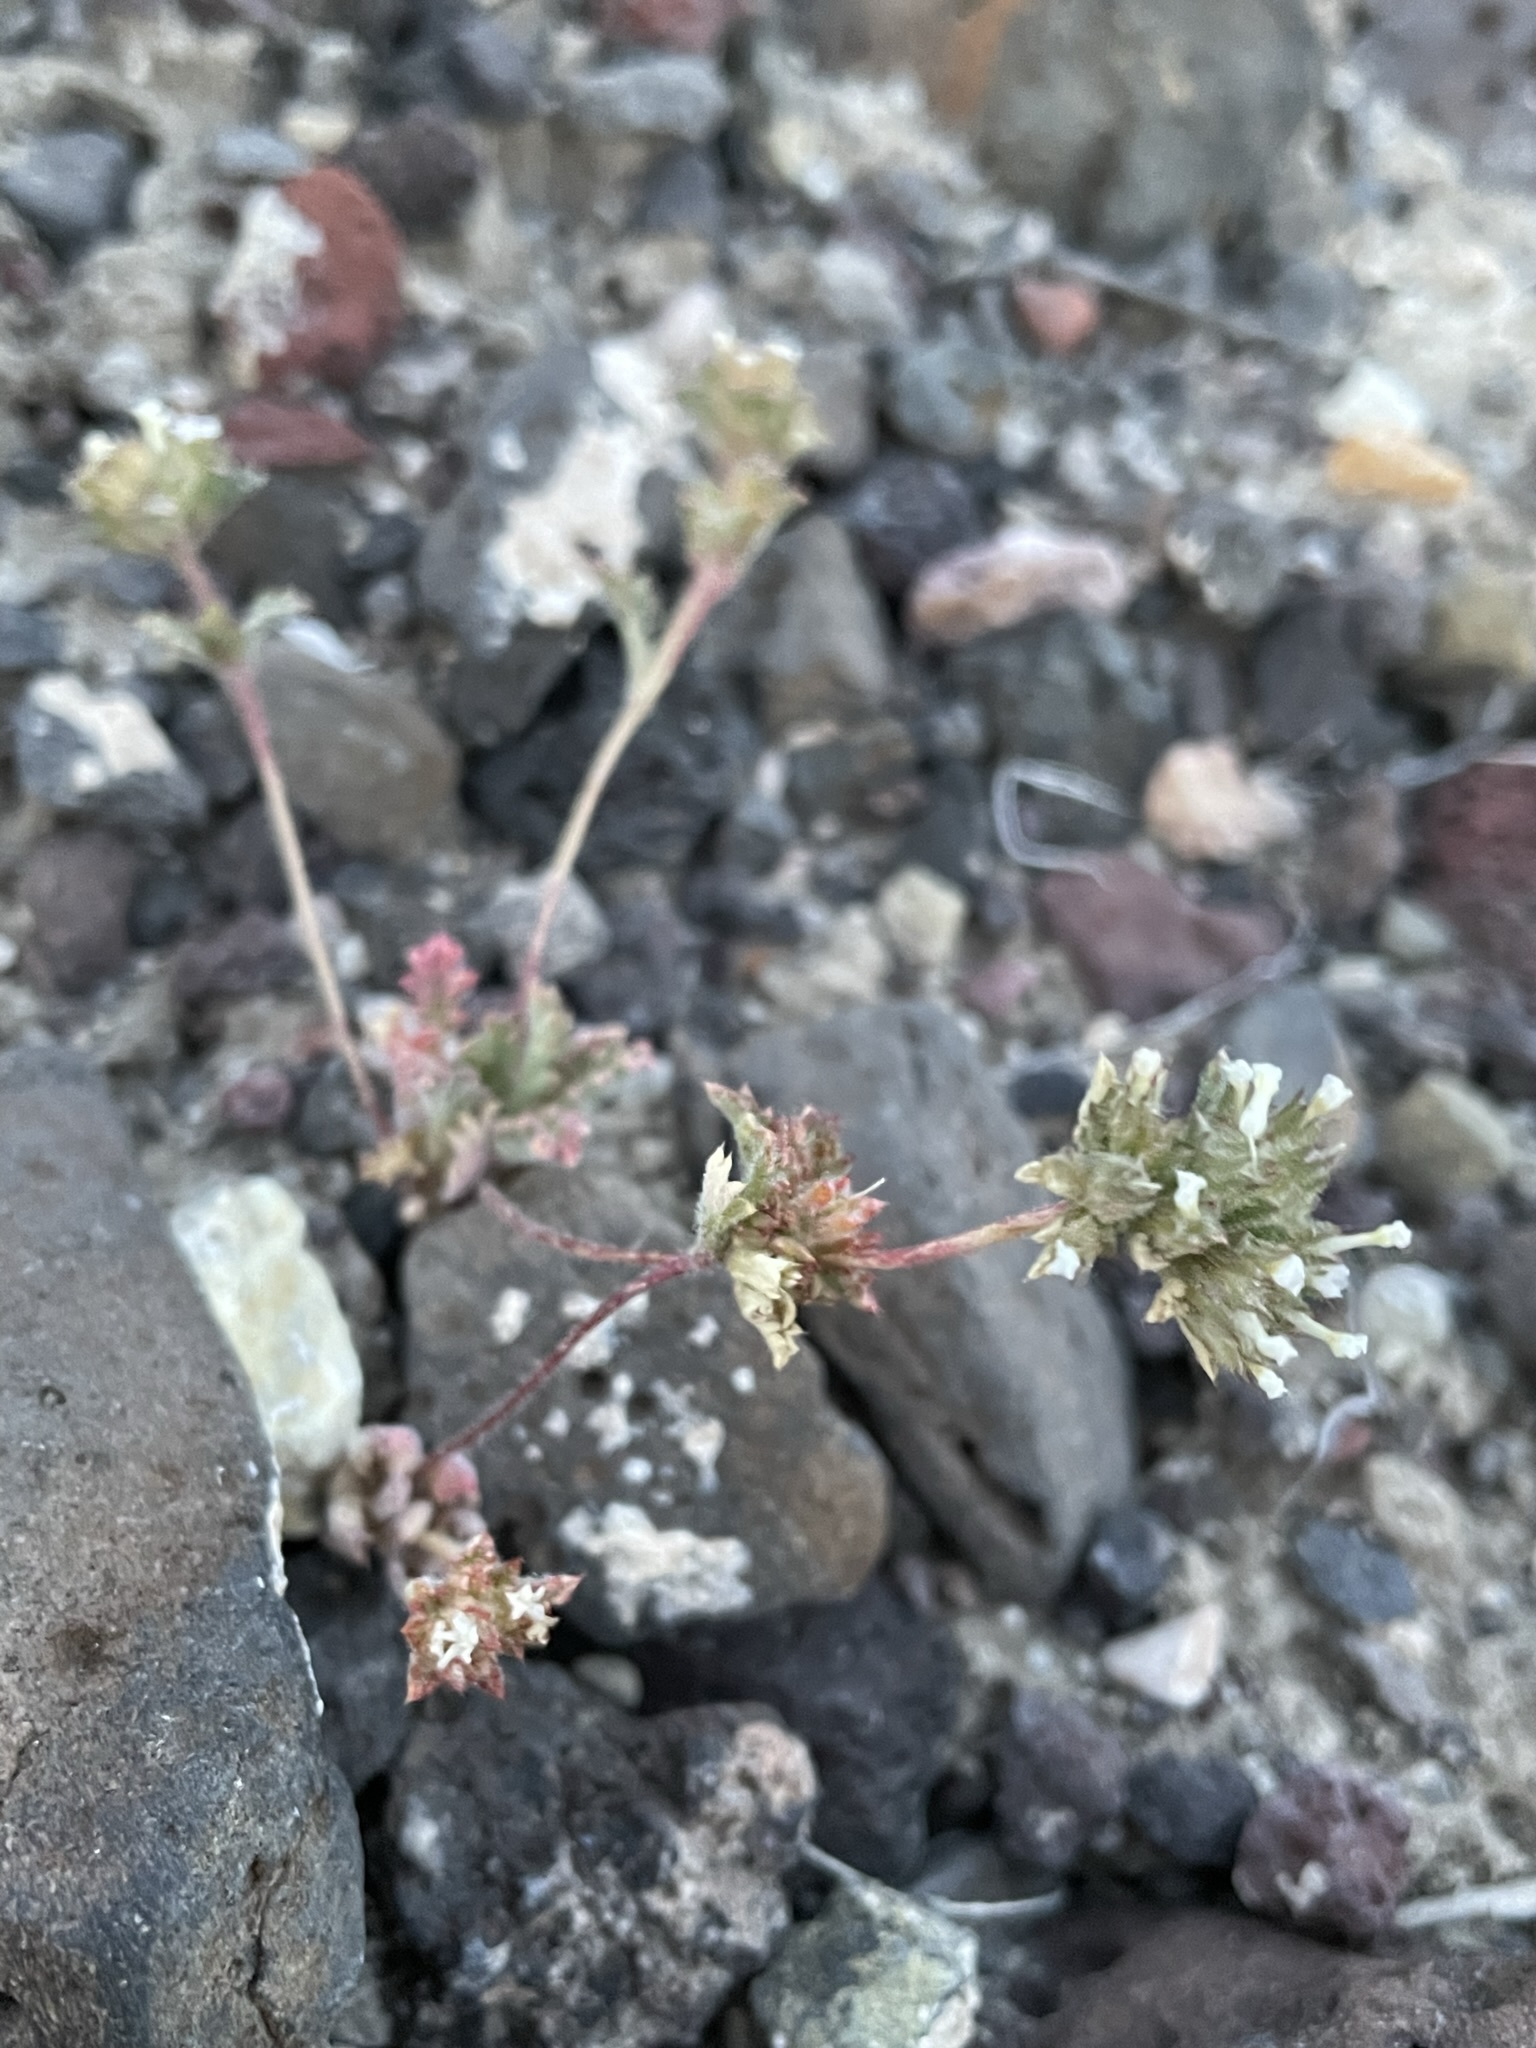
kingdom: Plantae
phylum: Tracheophyta
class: Magnoliopsida
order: Ericales
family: Polemoniaceae
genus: Ipomopsis
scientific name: Ipomopsis polycladon
